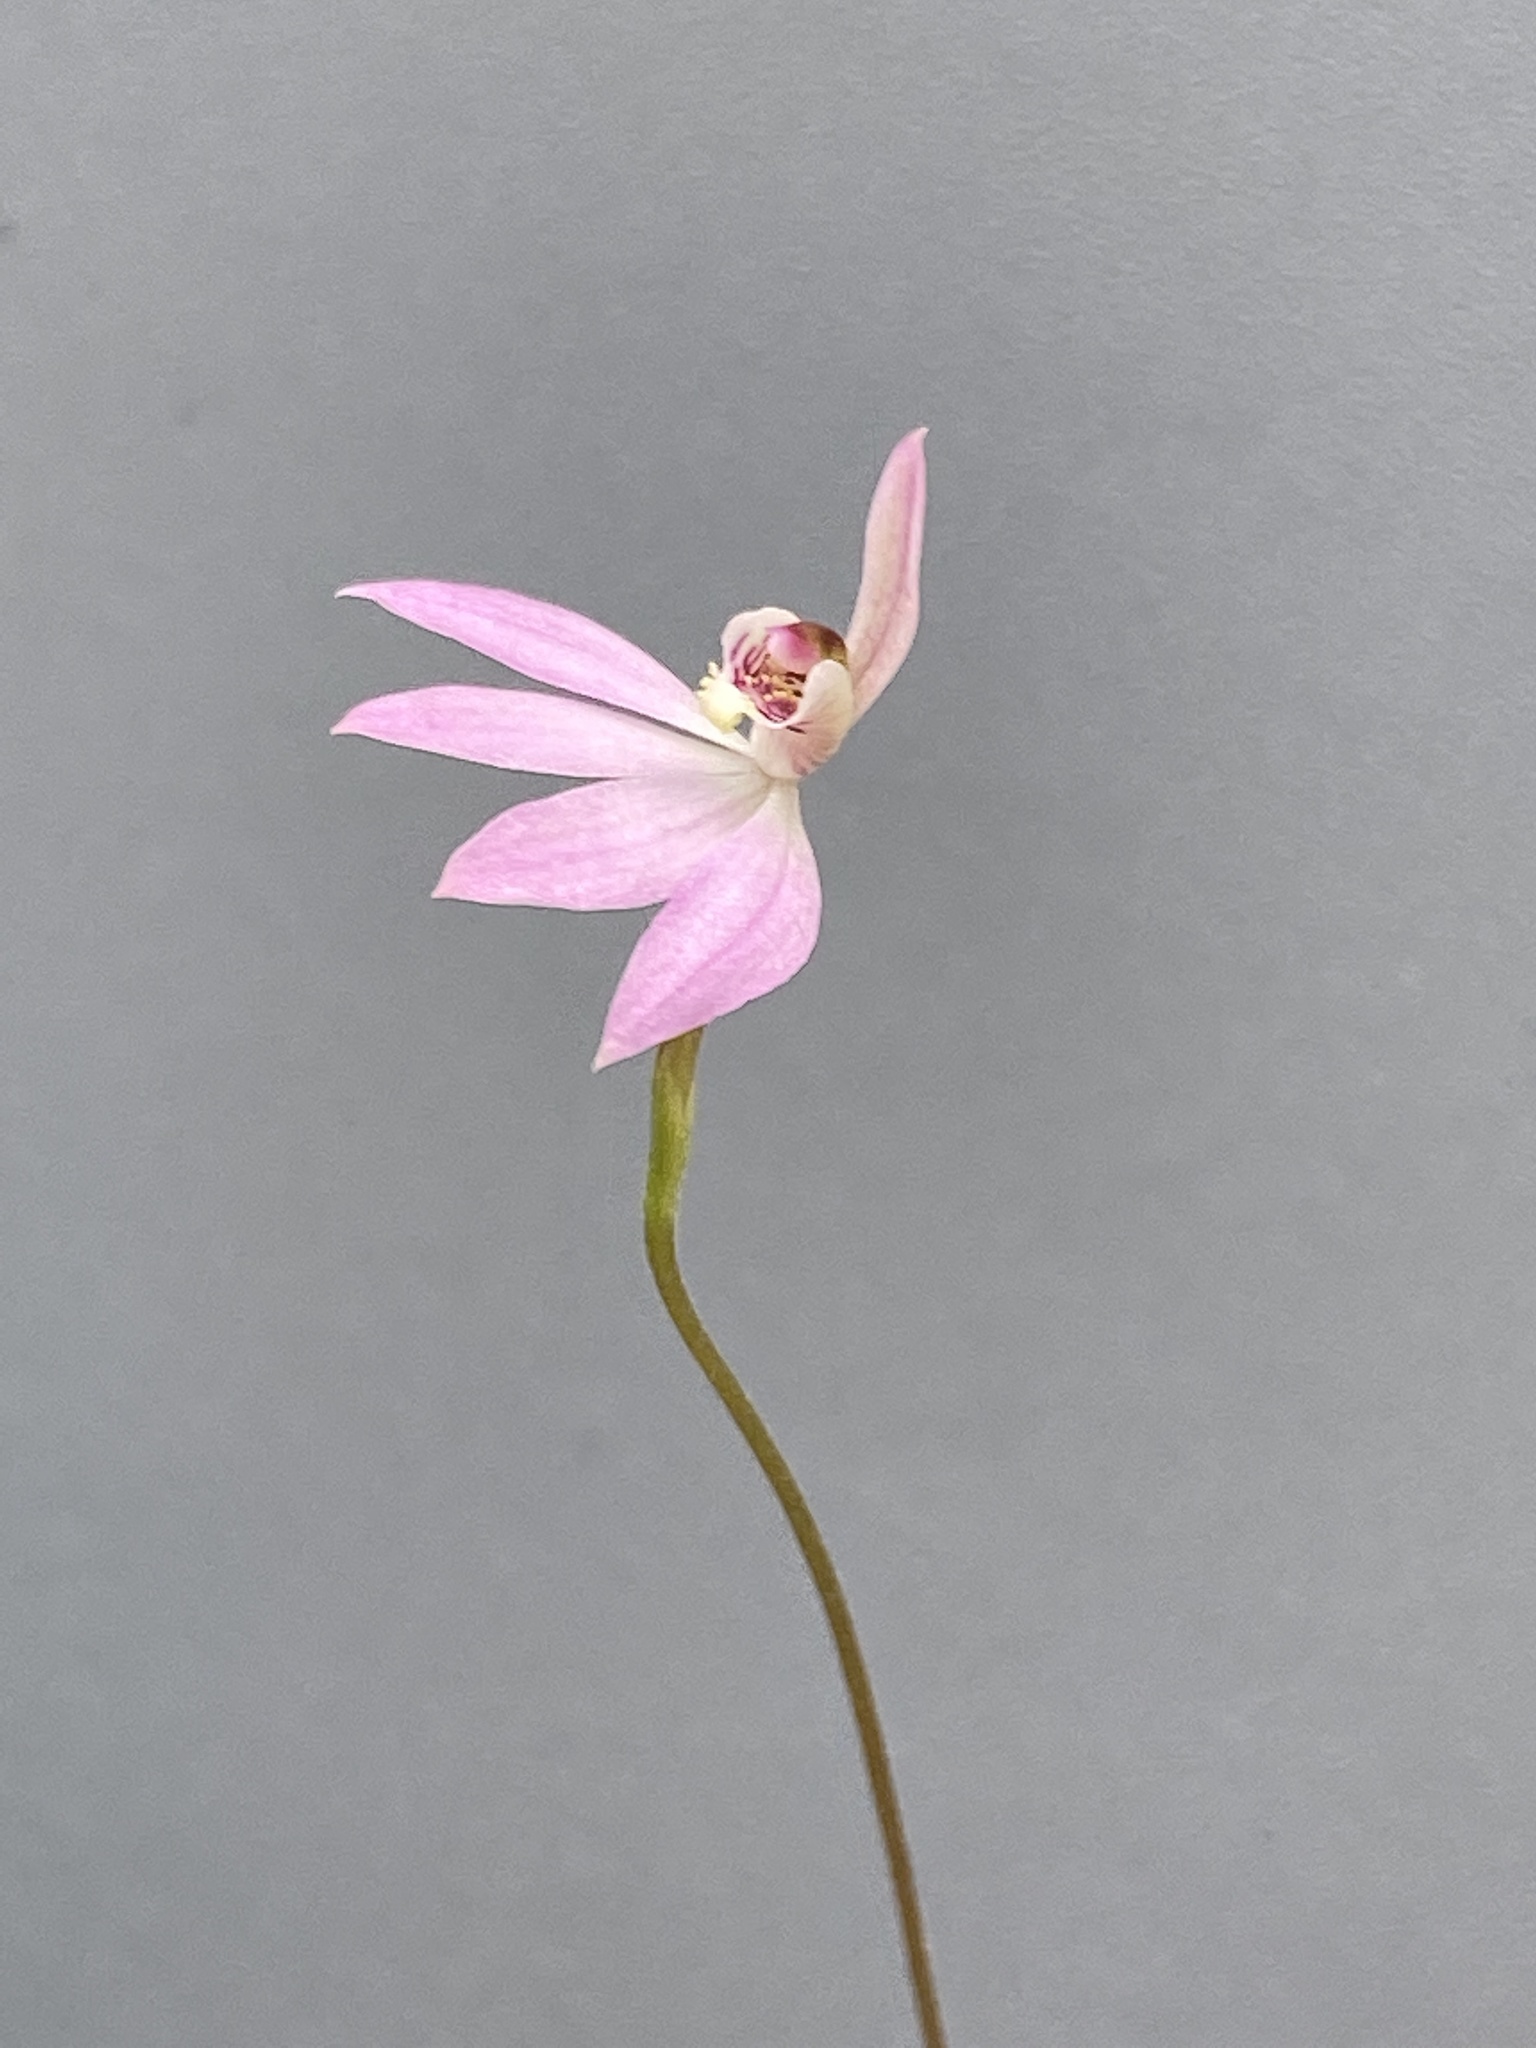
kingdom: Plantae
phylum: Tracheophyta
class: Liliopsida
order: Asparagales
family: Orchidaceae
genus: Caladenia
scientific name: Caladenia carnea
